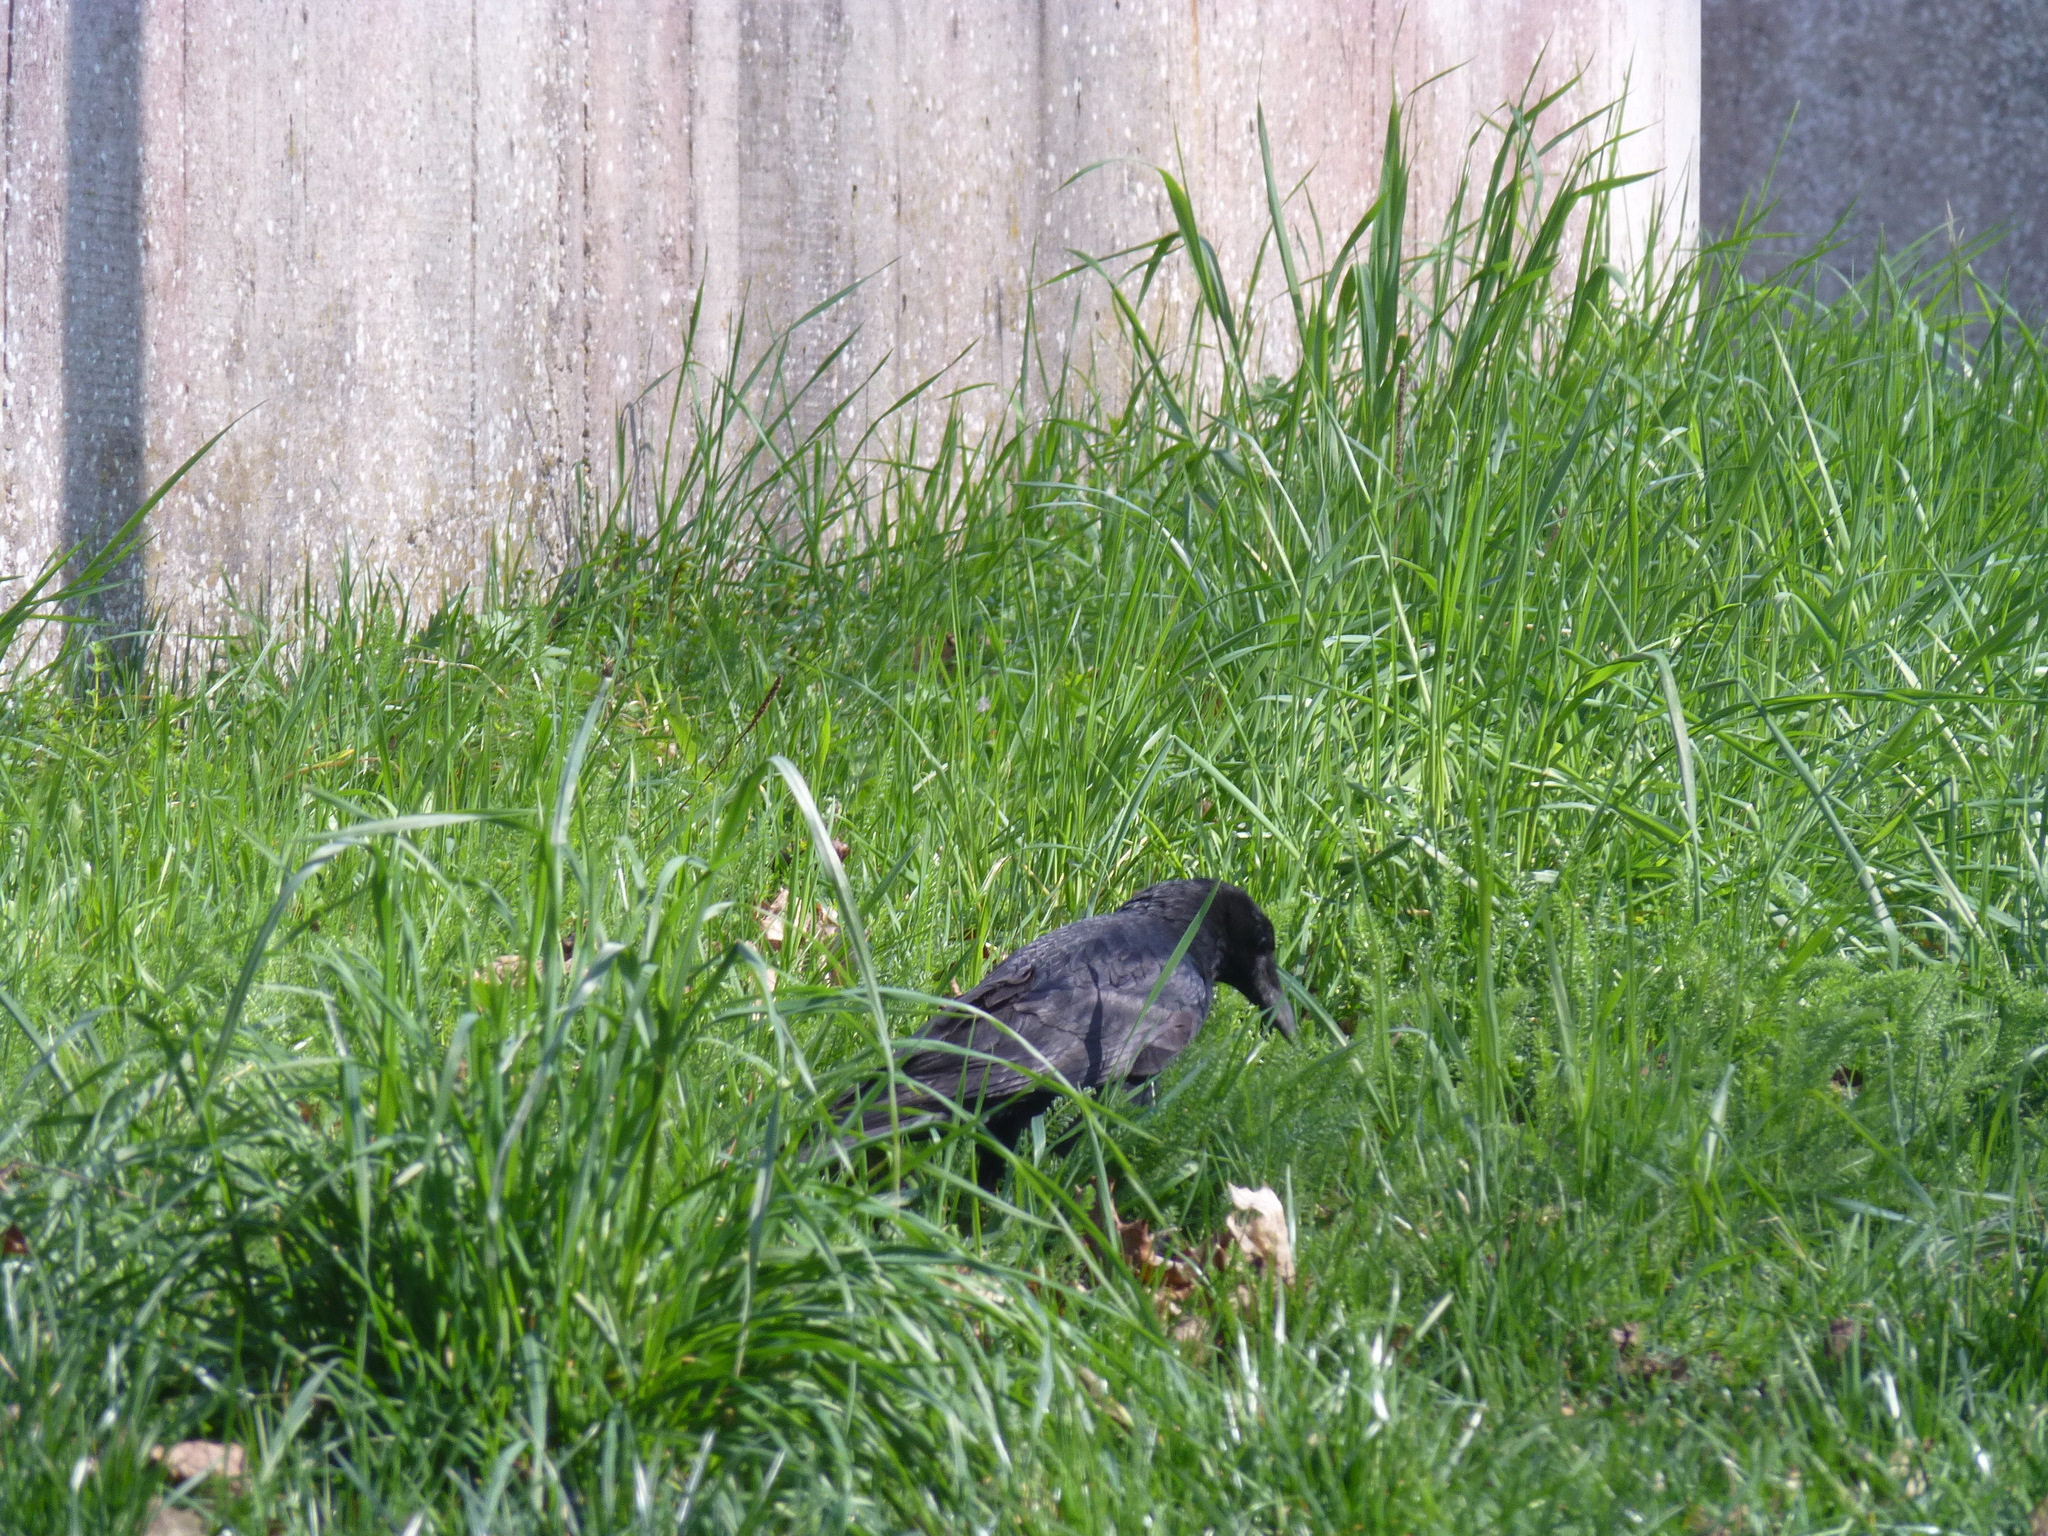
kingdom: Animalia
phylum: Chordata
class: Aves
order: Passeriformes
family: Corvidae
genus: Corvus
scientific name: Corvus corone
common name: Carrion crow
